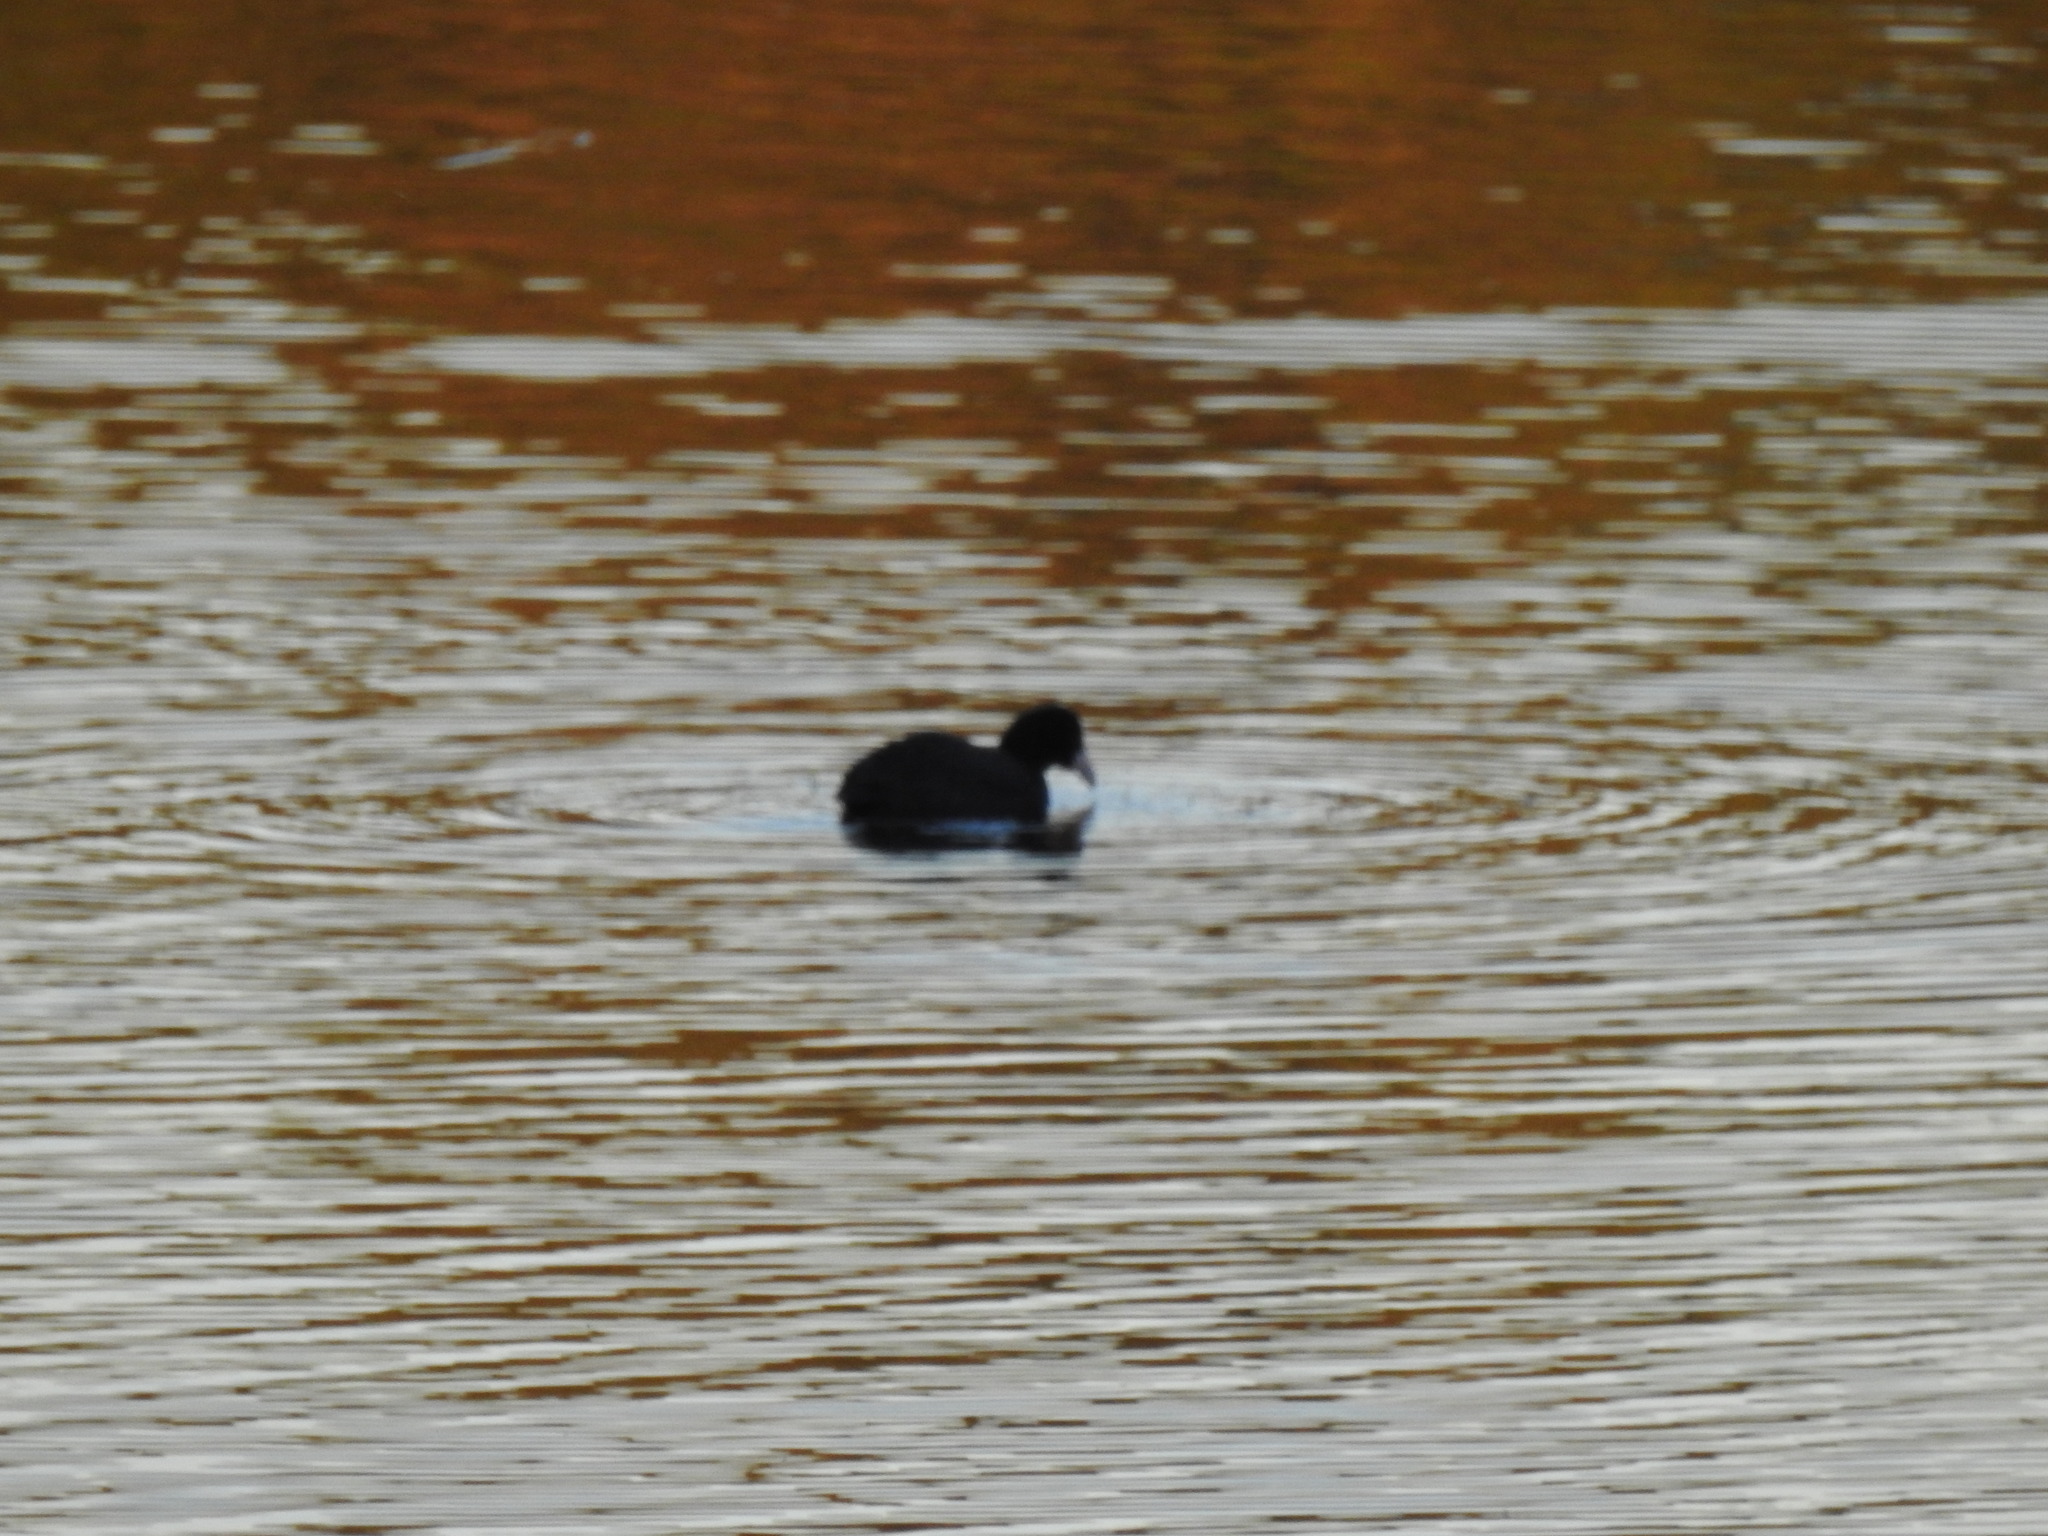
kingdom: Animalia
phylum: Chordata
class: Aves
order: Gruiformes
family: Rallidae
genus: Fulica
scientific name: Fulica atra
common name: Eurasian coot
